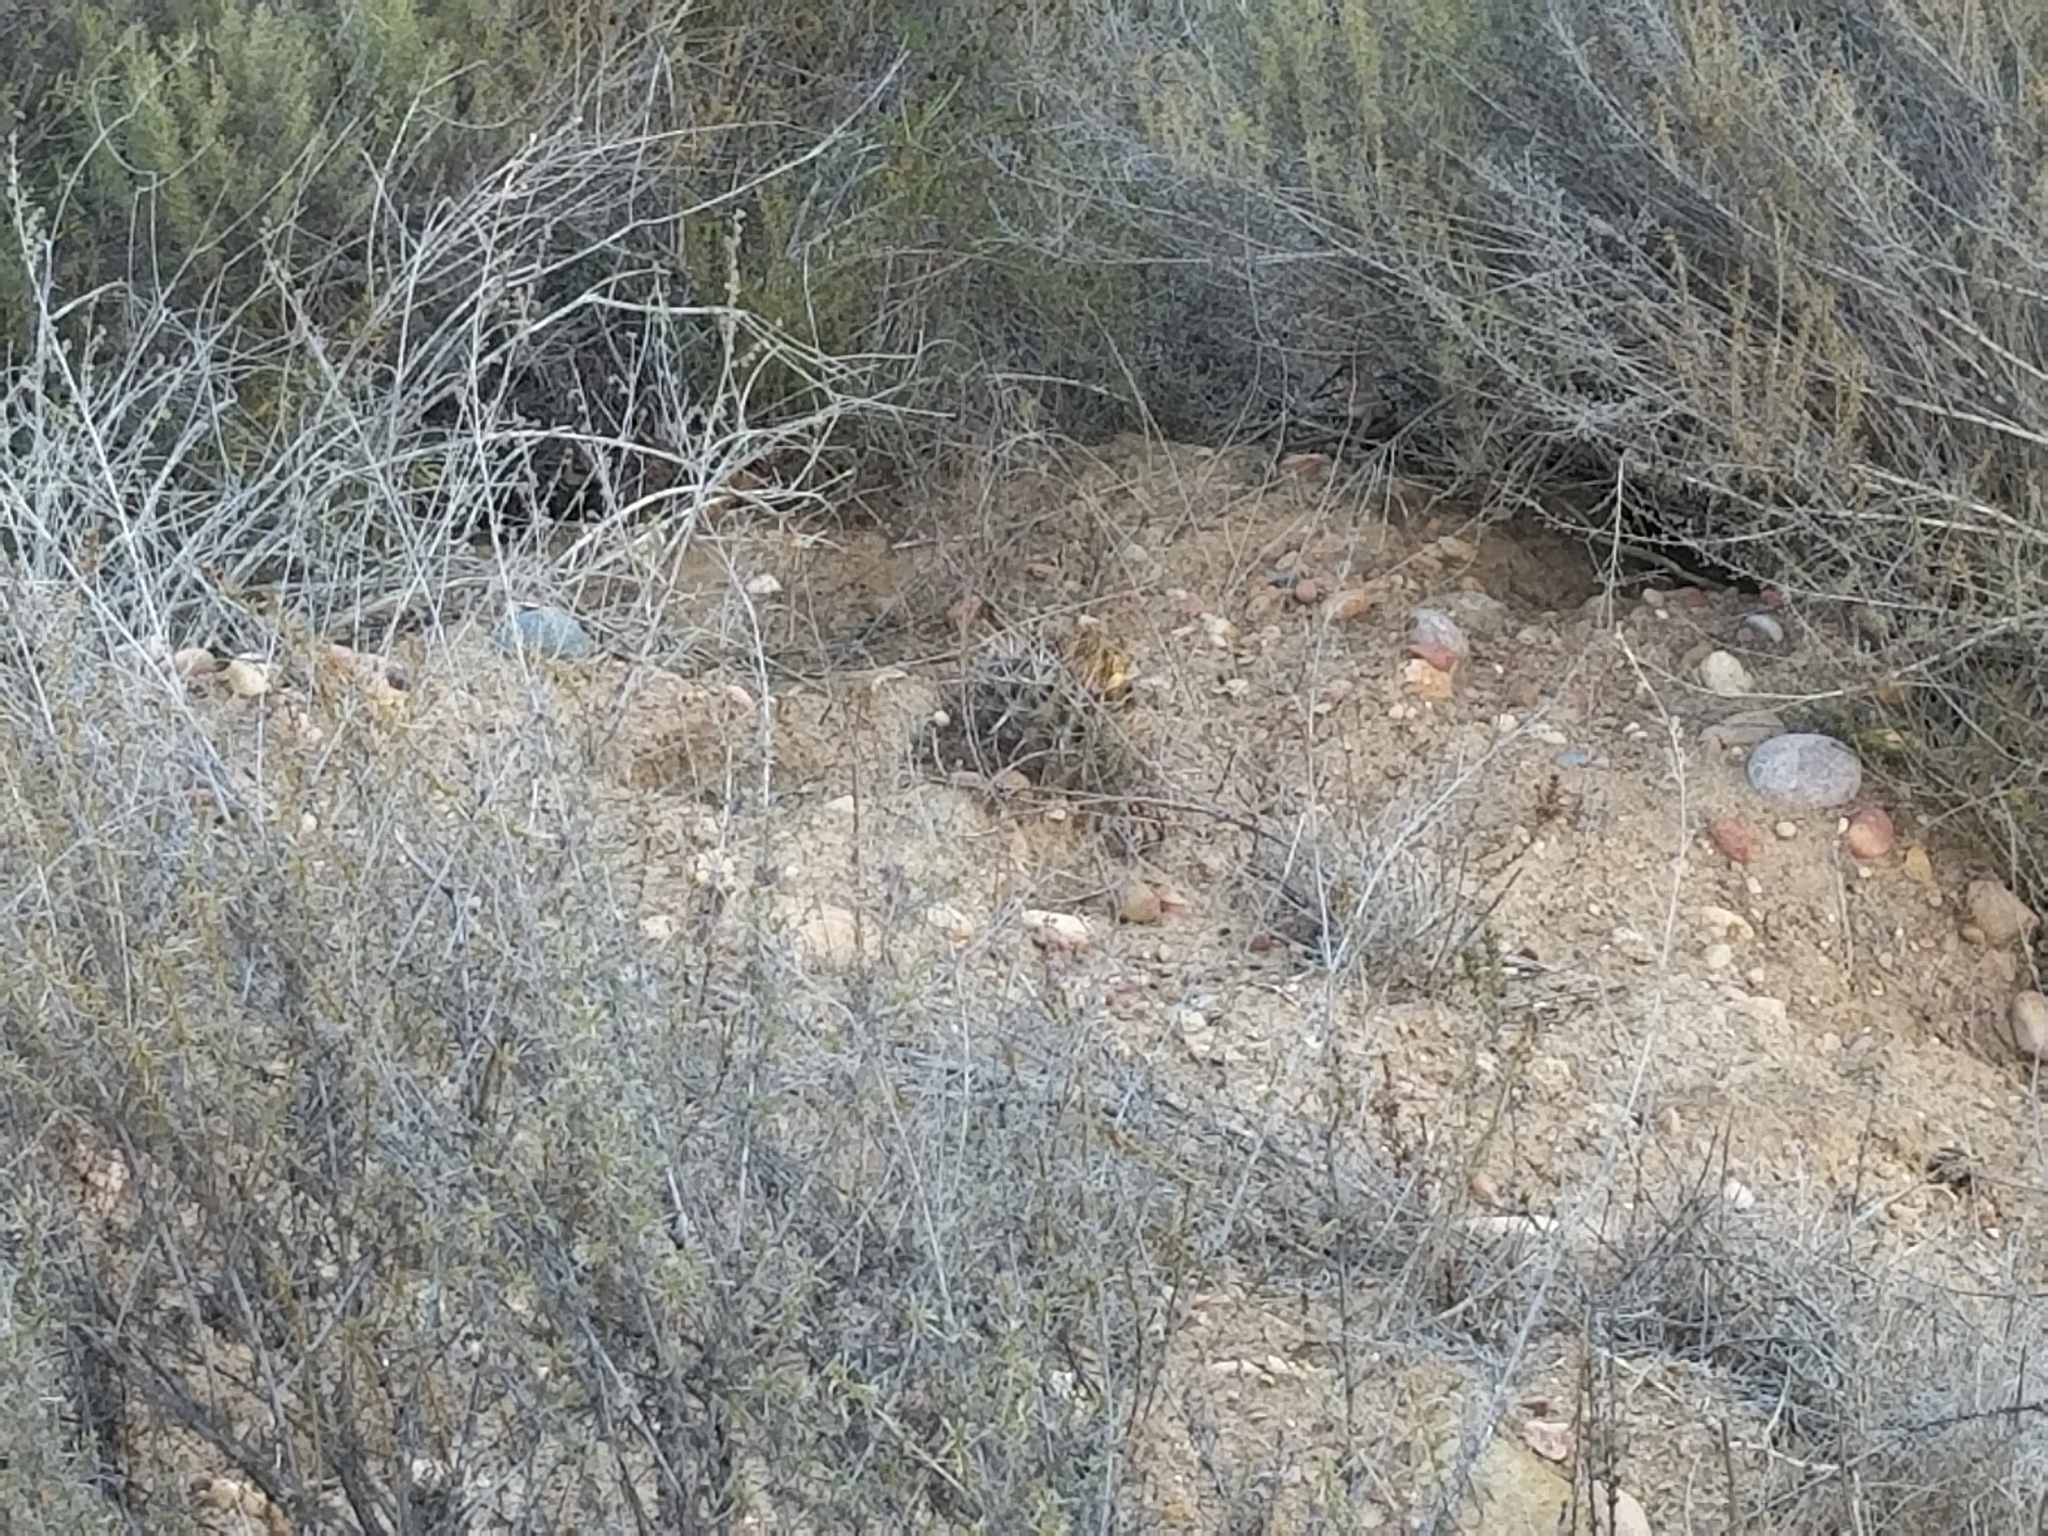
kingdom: Plantae
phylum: Tracheophyta
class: Magnoliopsida
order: Caryophyllales
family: Cactaceae
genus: Ferocactus
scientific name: Ferocactus viridescens
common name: San diego barrel cactus
